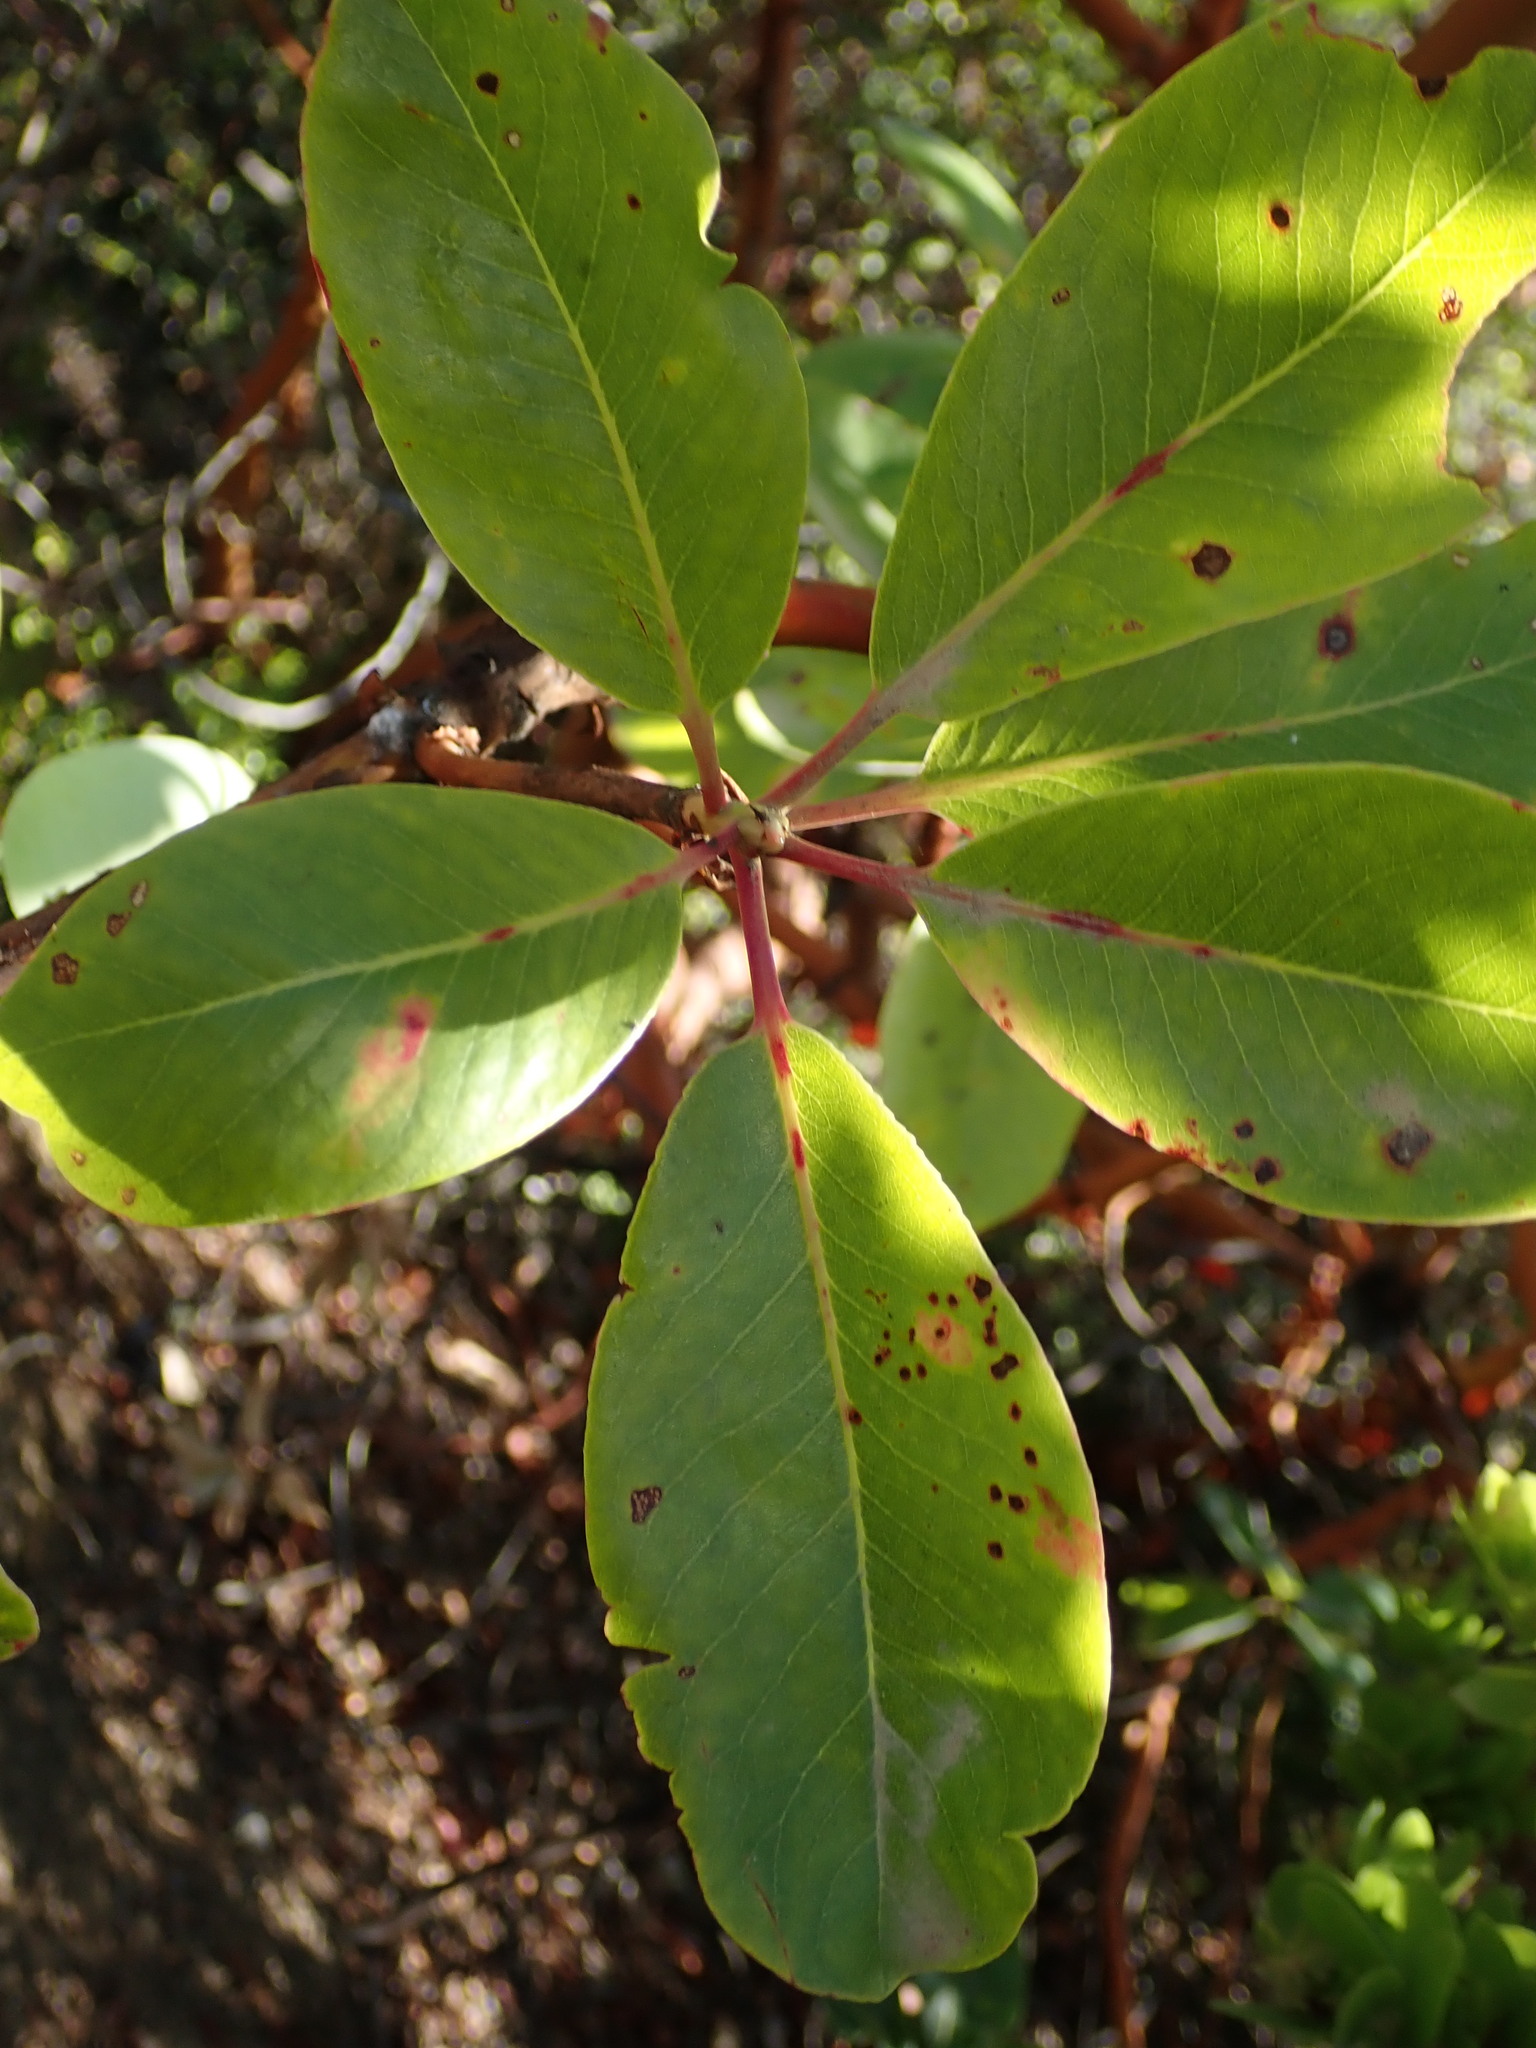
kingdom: Plantae
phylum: Tracheophyta
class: Magnoliopsida
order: Ericales
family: Ericaceae
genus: Arbutus
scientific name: Arbutus menziesii
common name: Pacific madrone
